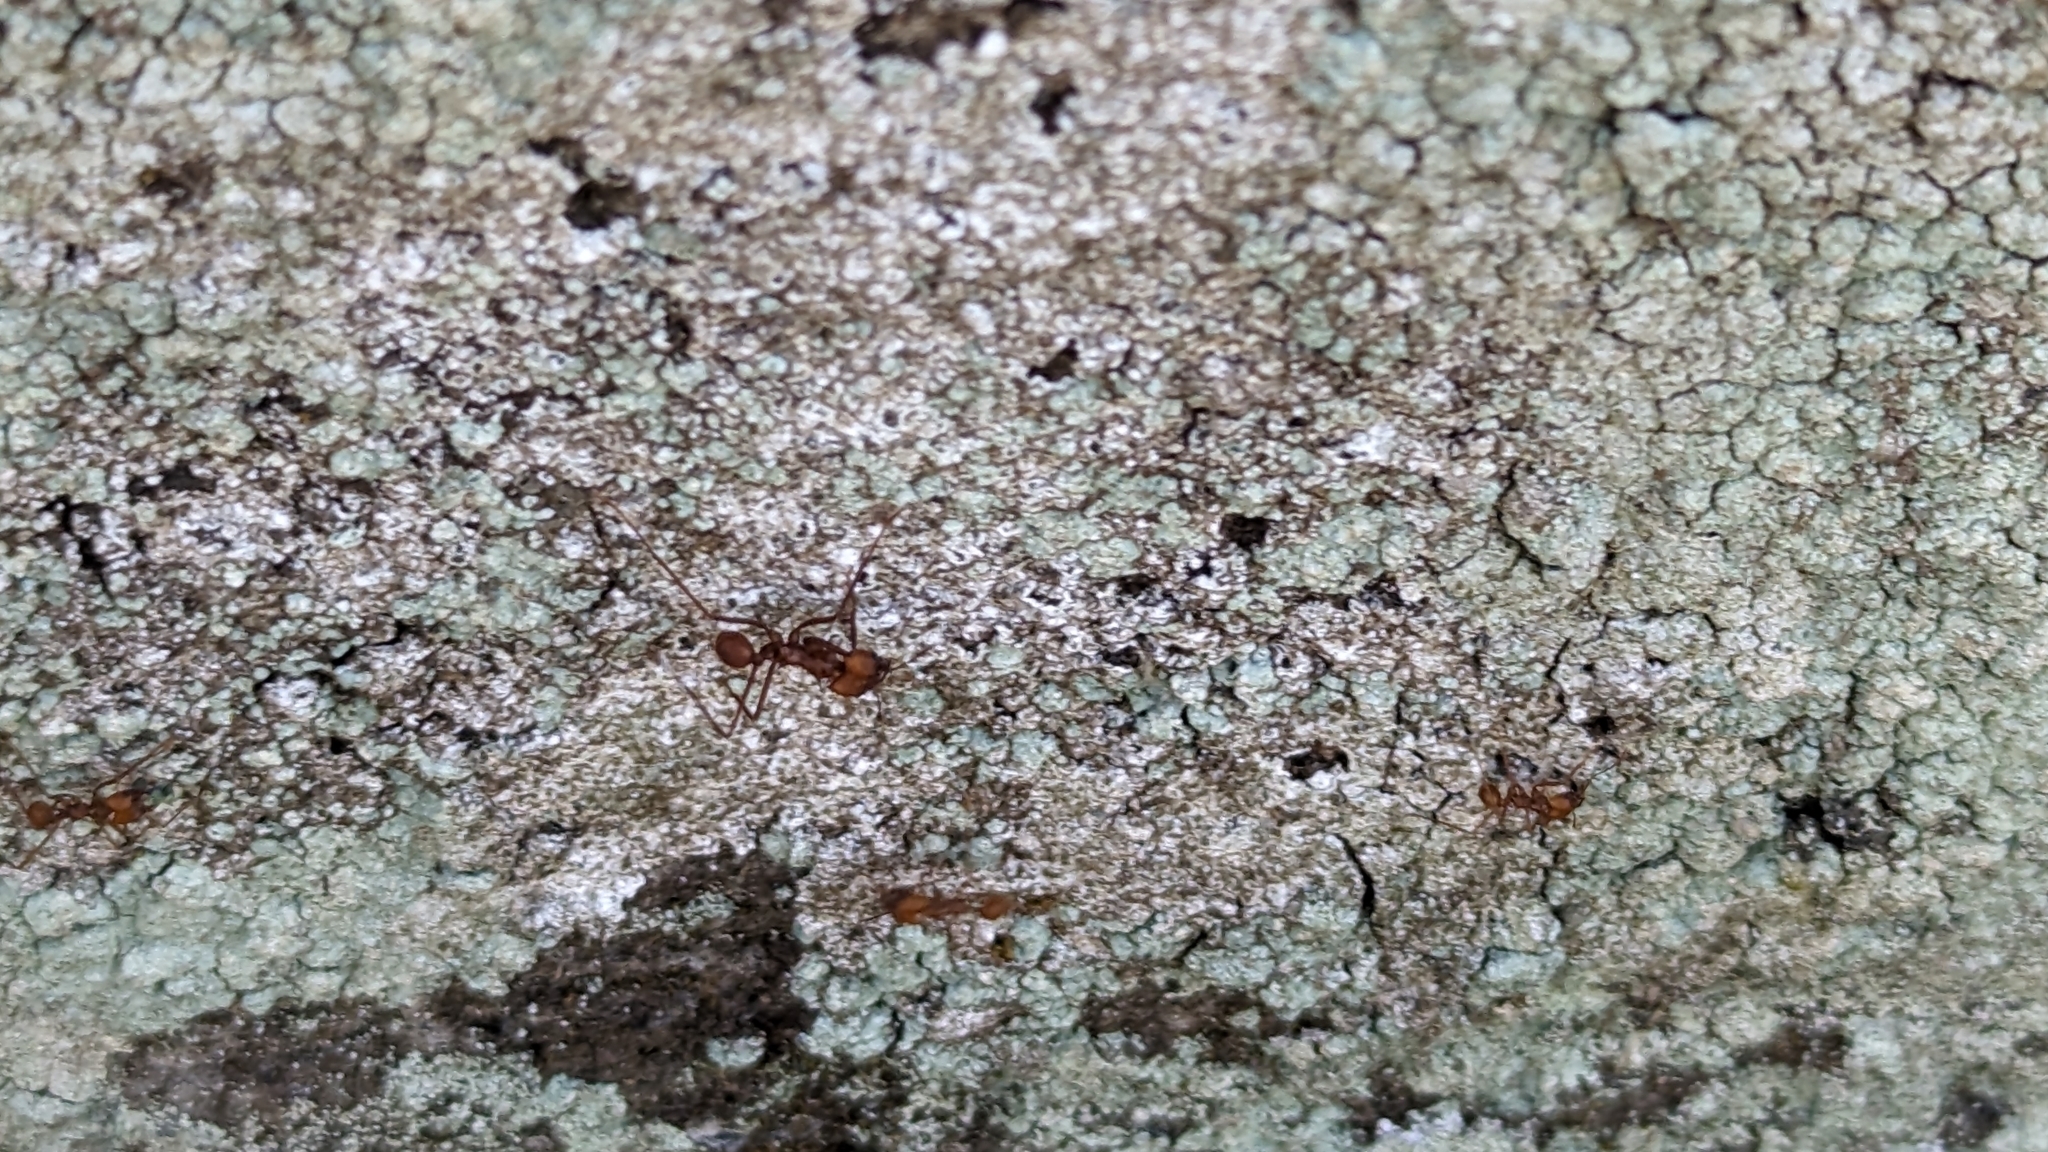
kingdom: Animalia
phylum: Arthropoda
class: Insecta
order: Hymenoptera
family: Formicidae
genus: Atta
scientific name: Atta cephalotes
